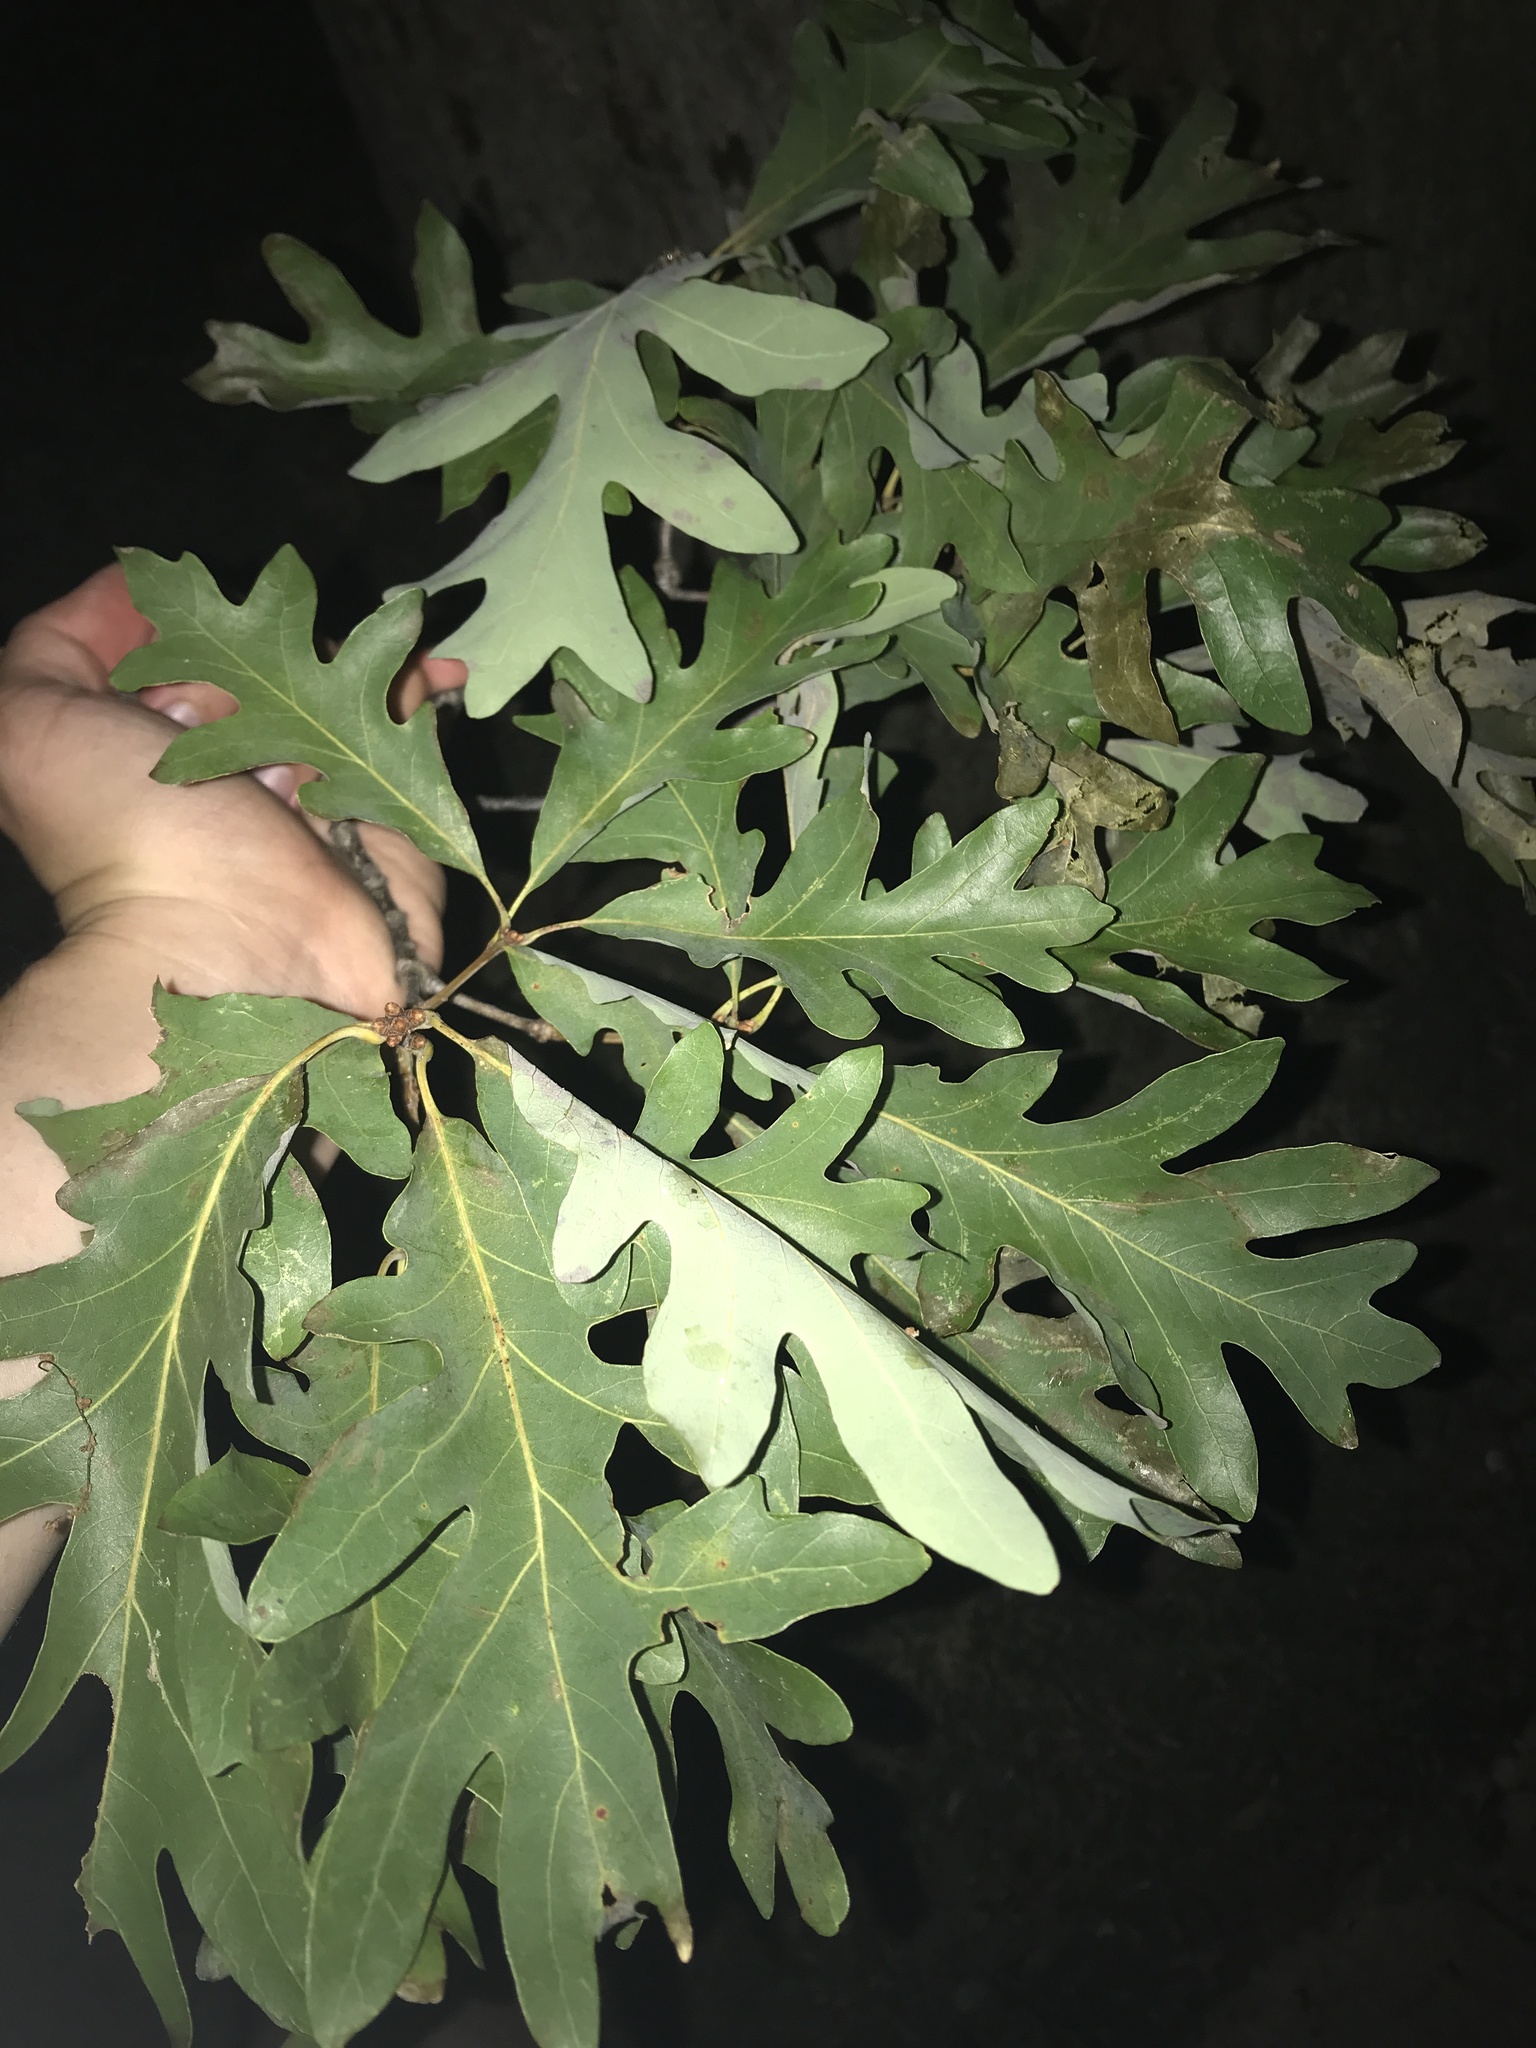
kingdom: Plantae
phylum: Tracheophyta
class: Magnoliopsida
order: Fagales
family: Fagaceae
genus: Quercus
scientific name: Quercus alba
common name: White oak
